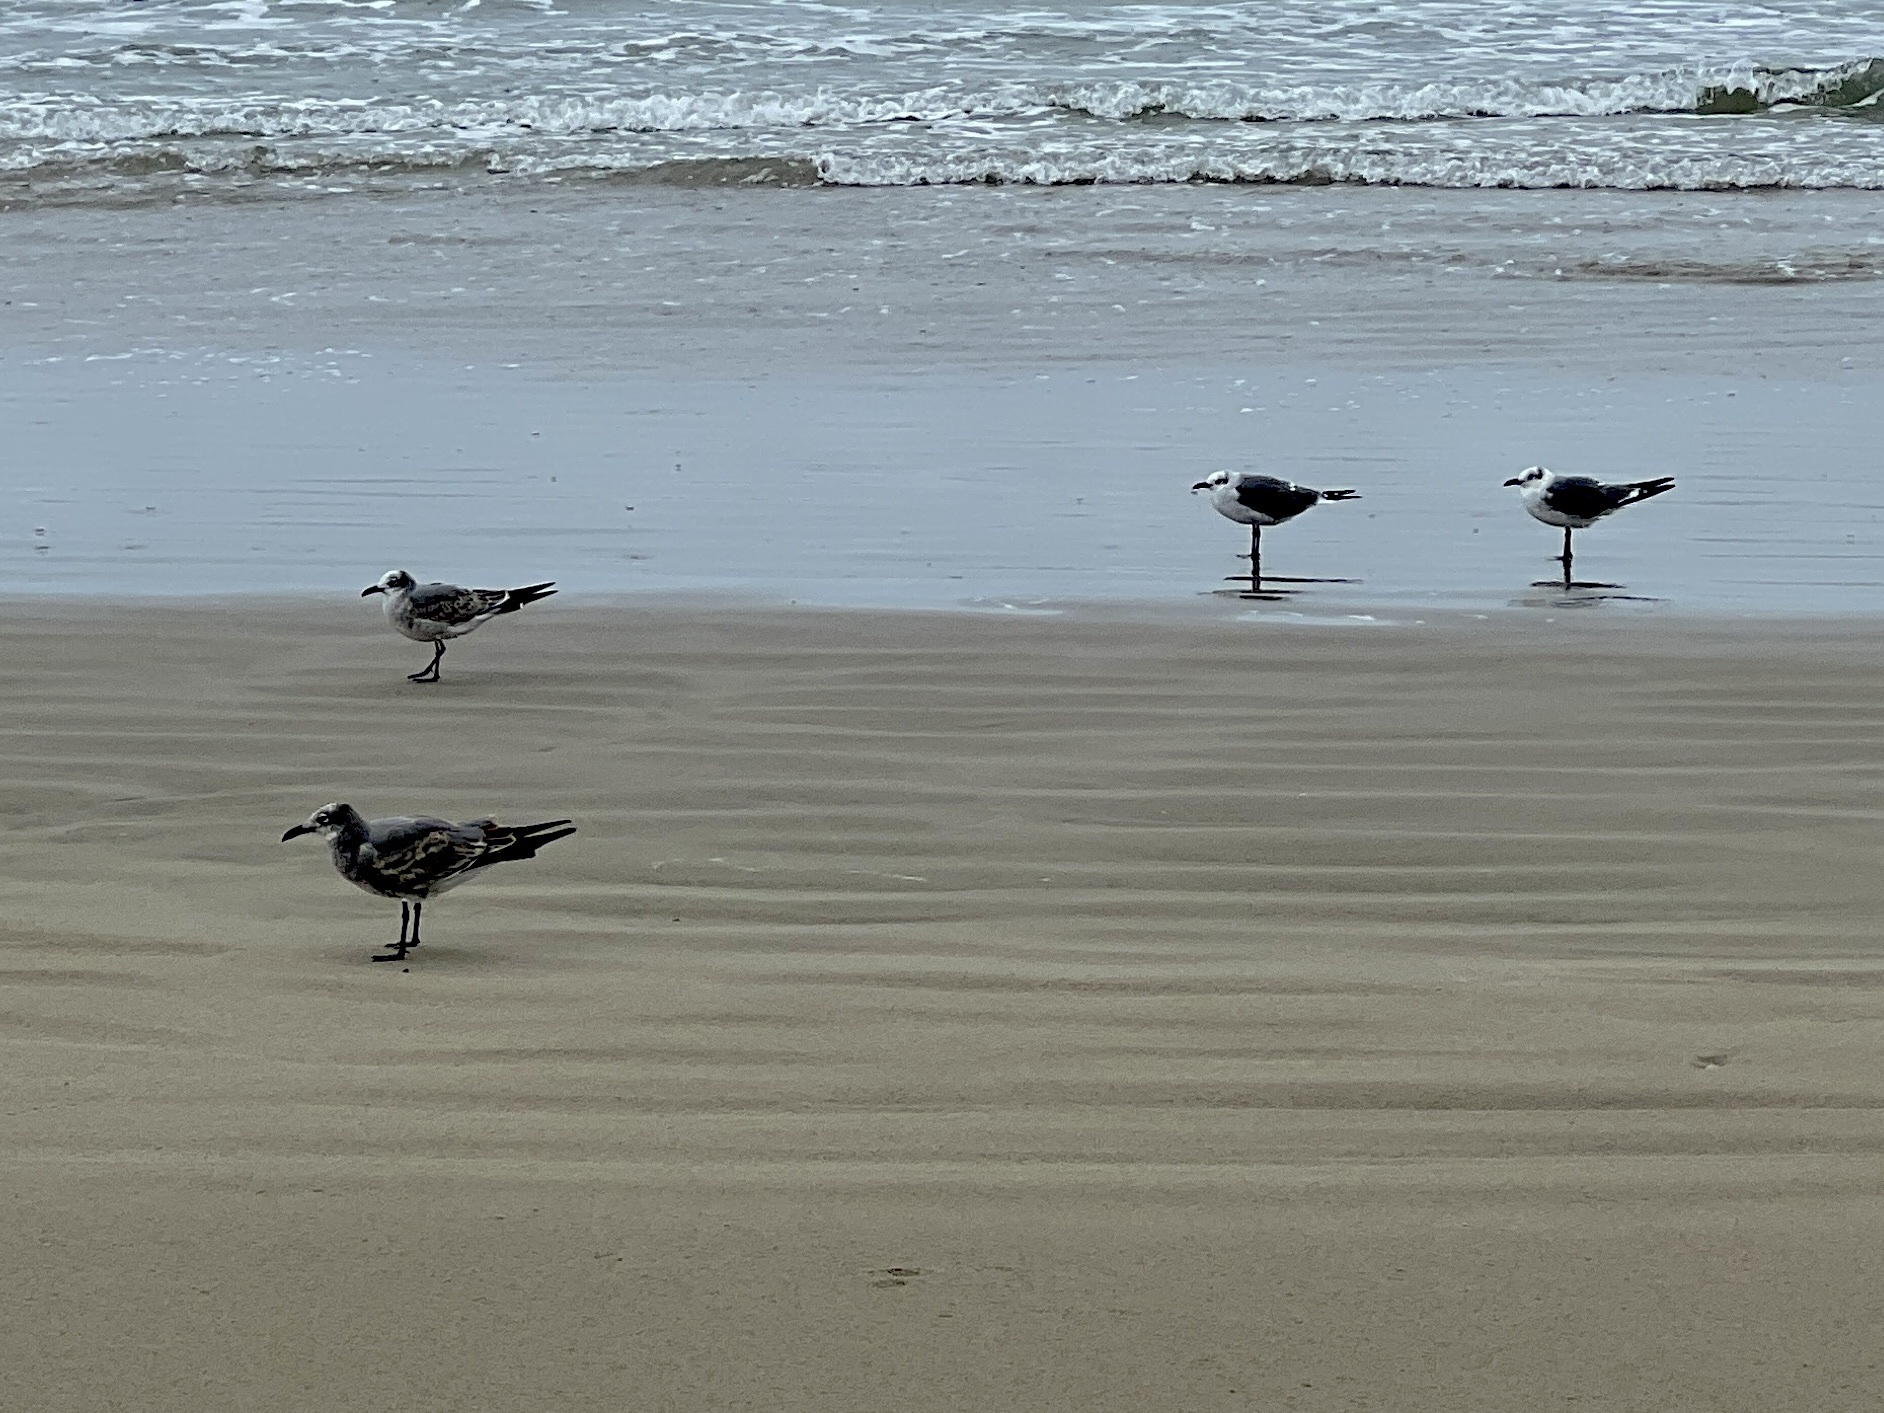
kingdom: Animalia
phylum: Chordata
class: Aves
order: Charadriiformes
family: Laridae
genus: Leucophaeus
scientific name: Leucophaeus atricilla
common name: Laughing gull
